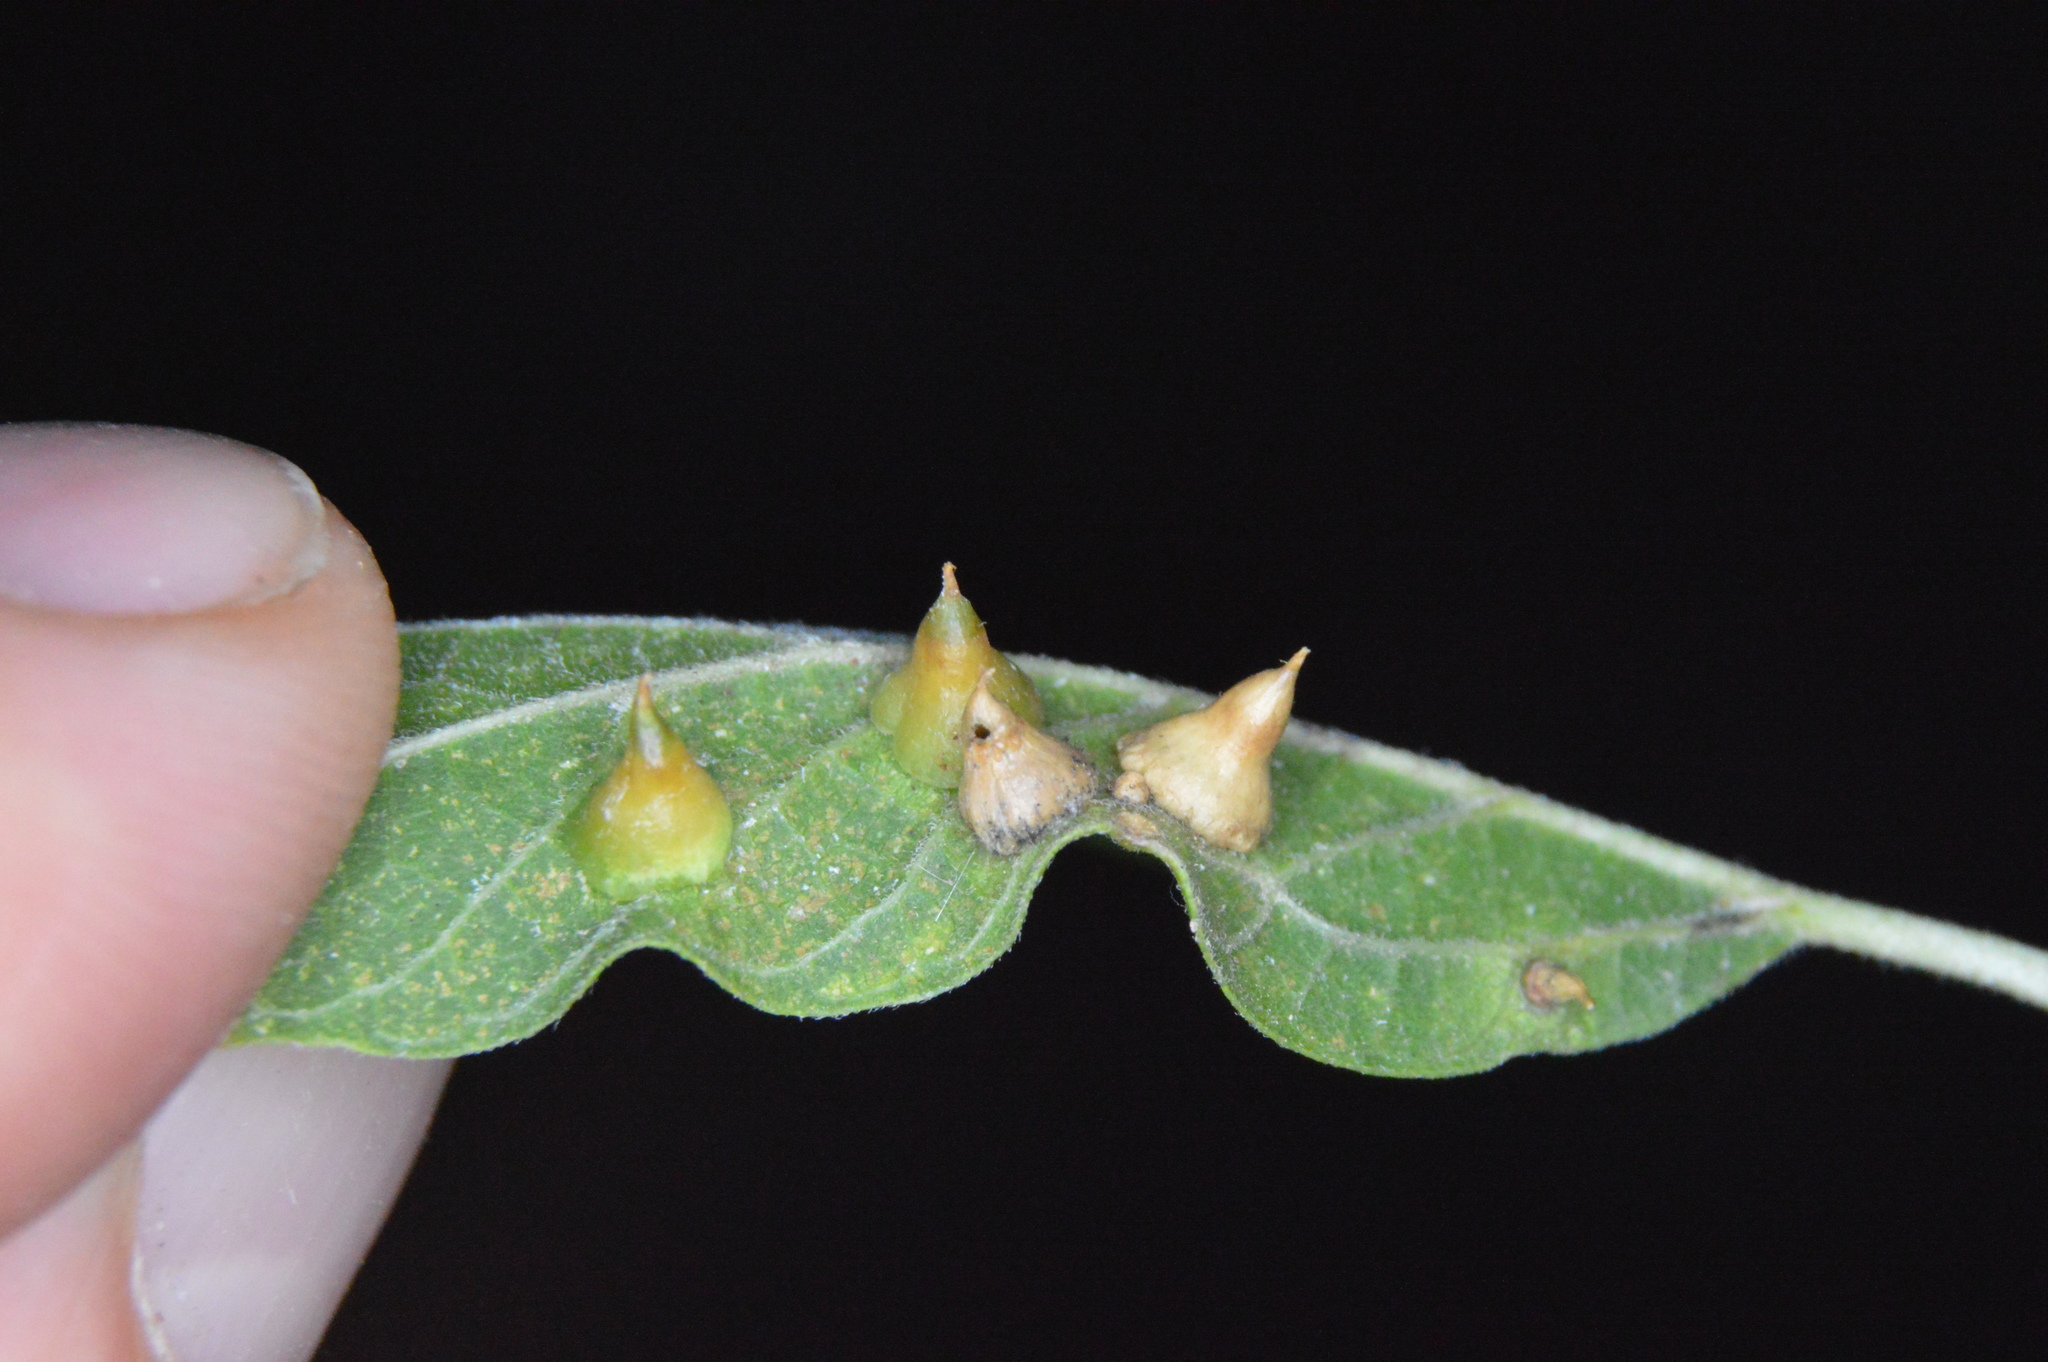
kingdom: Animalia
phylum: Arthropoda
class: Insecta
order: Diptera
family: Cecidomyiidae
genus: Celticecis
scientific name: Celticecis spiniformis
